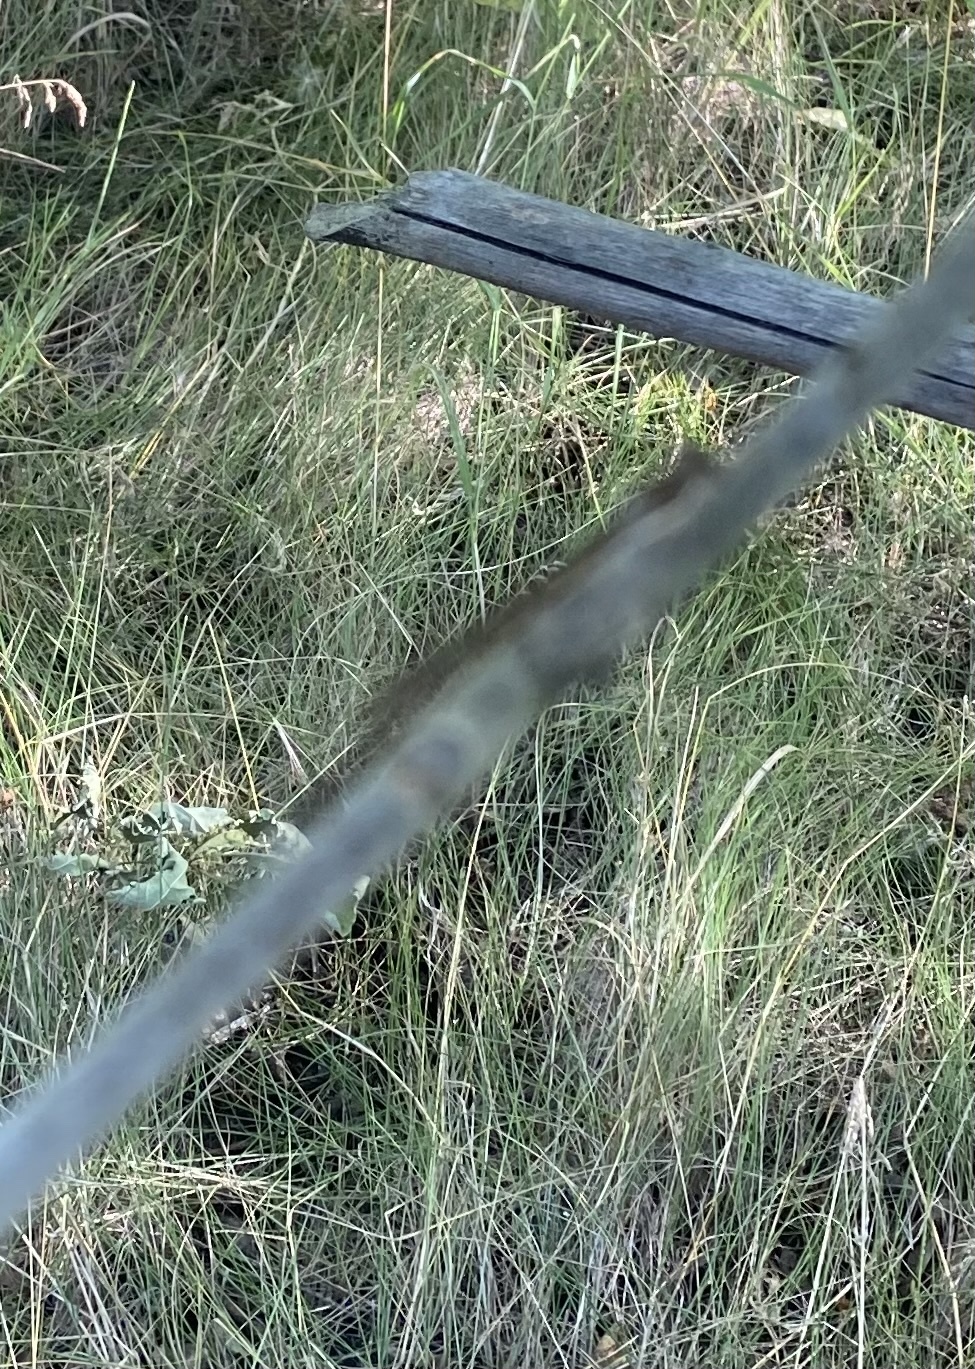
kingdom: Animalia
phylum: Arthropoda
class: Insecta
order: Odonata
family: Lestidae
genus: Sympecma
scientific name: Sympecma fusca
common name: Common winter damsel
